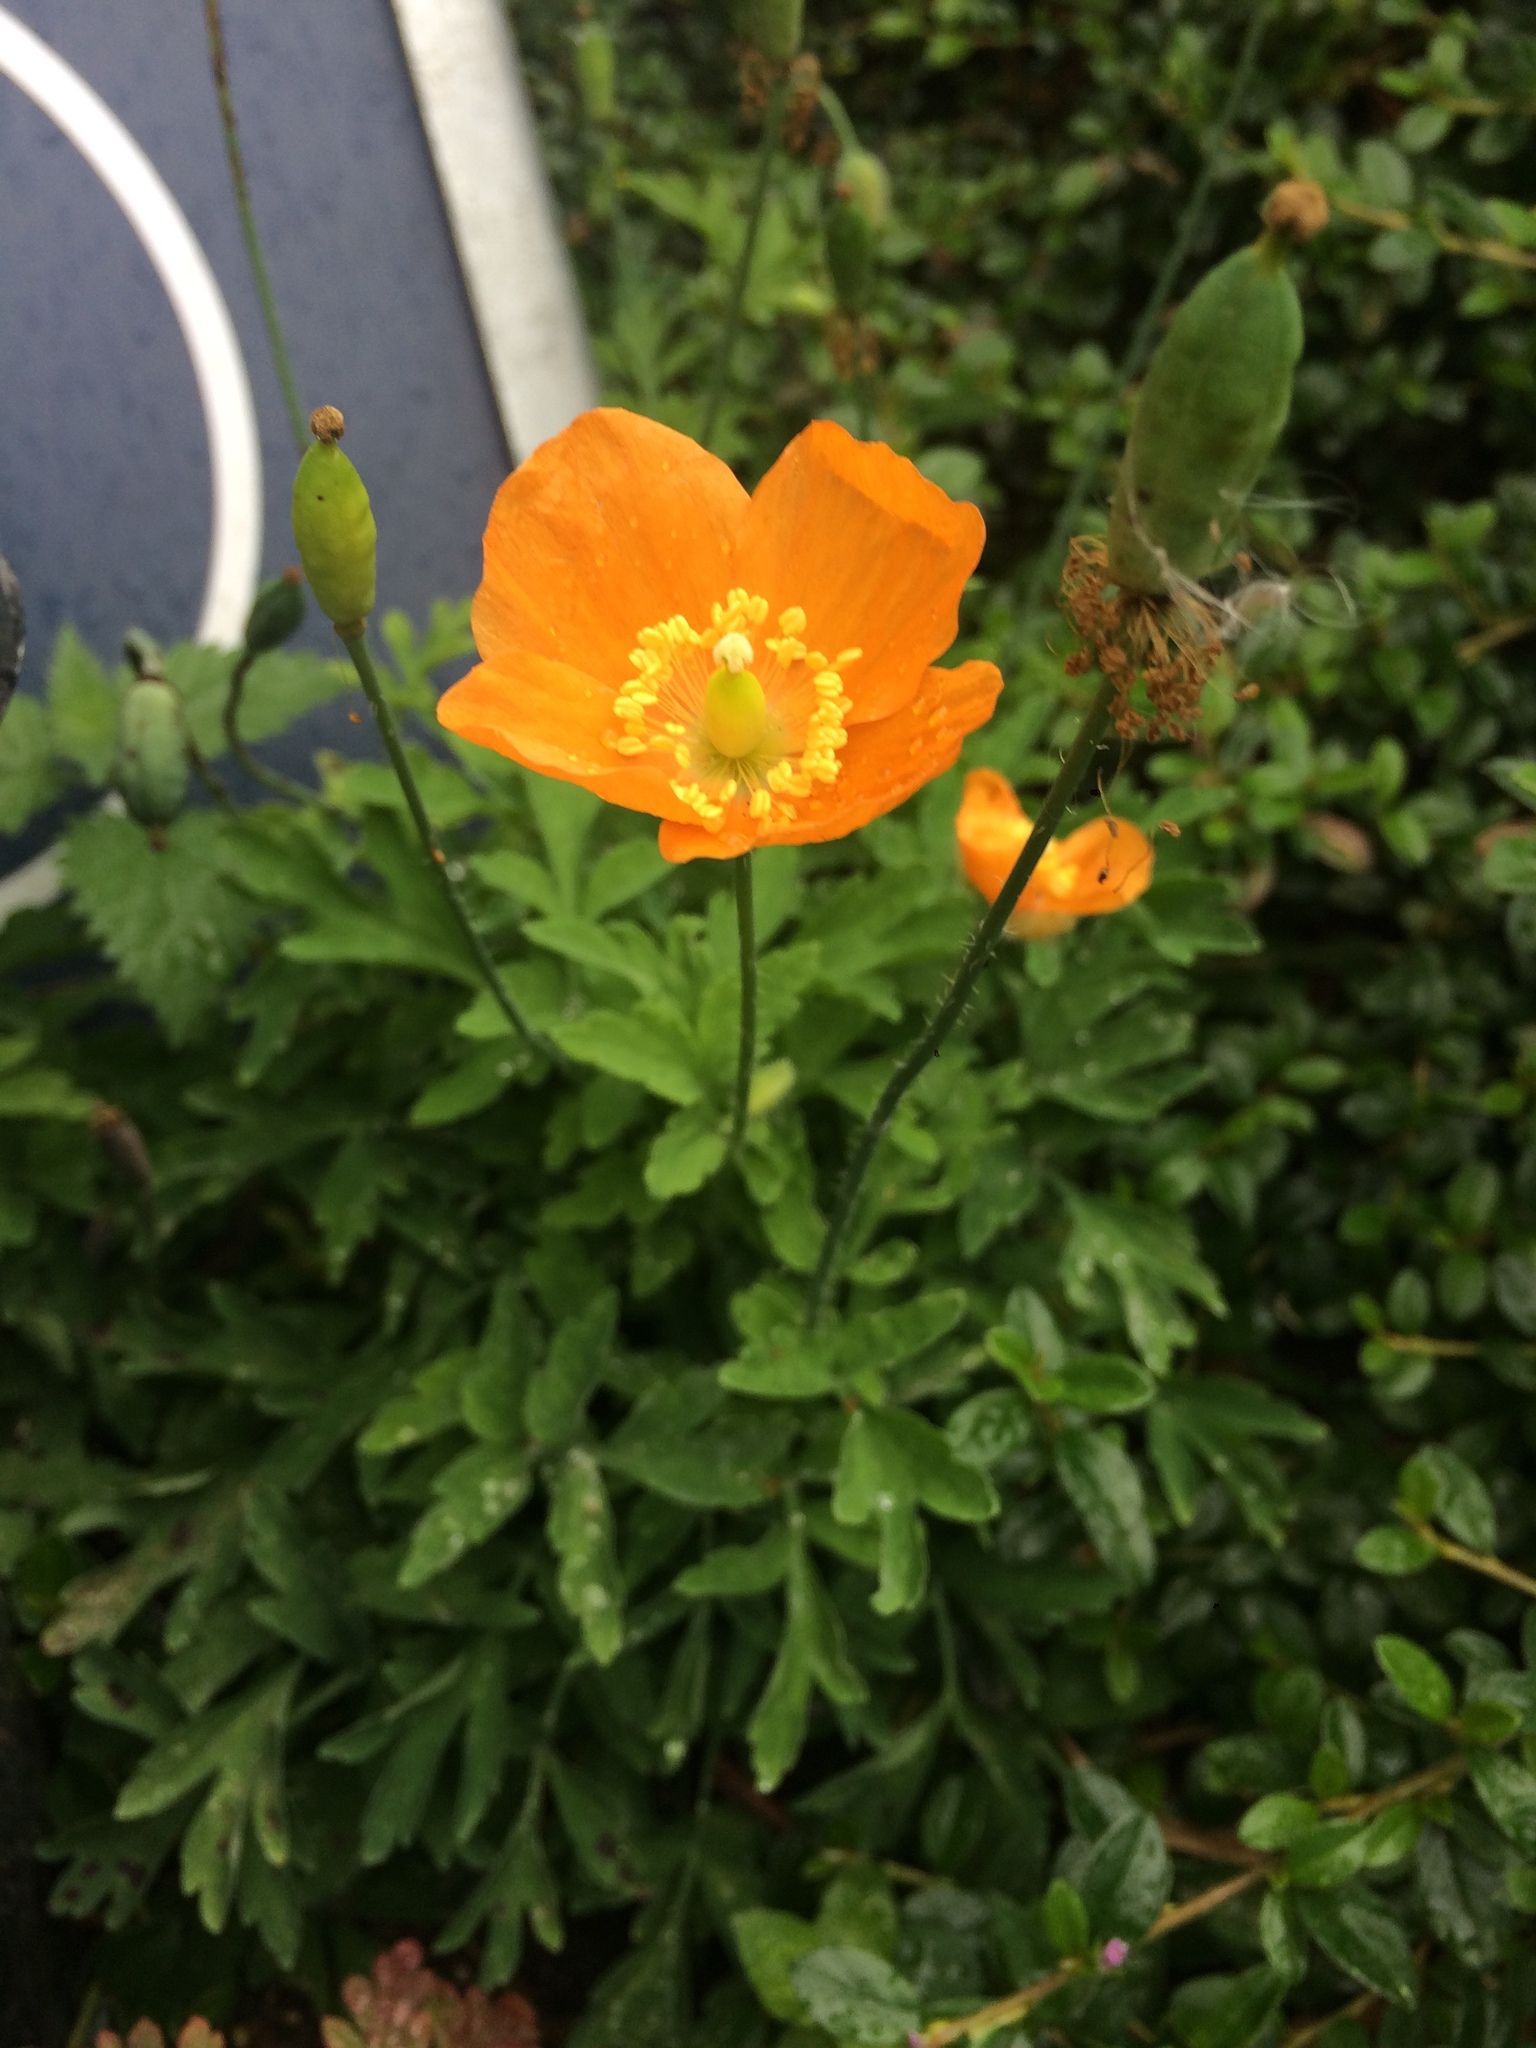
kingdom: Plantae
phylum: Tracheophyta
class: Magnoliopsida
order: Ranunculales
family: Papaveraceae
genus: Papaver
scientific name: Papaver cambricum
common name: Poppy
